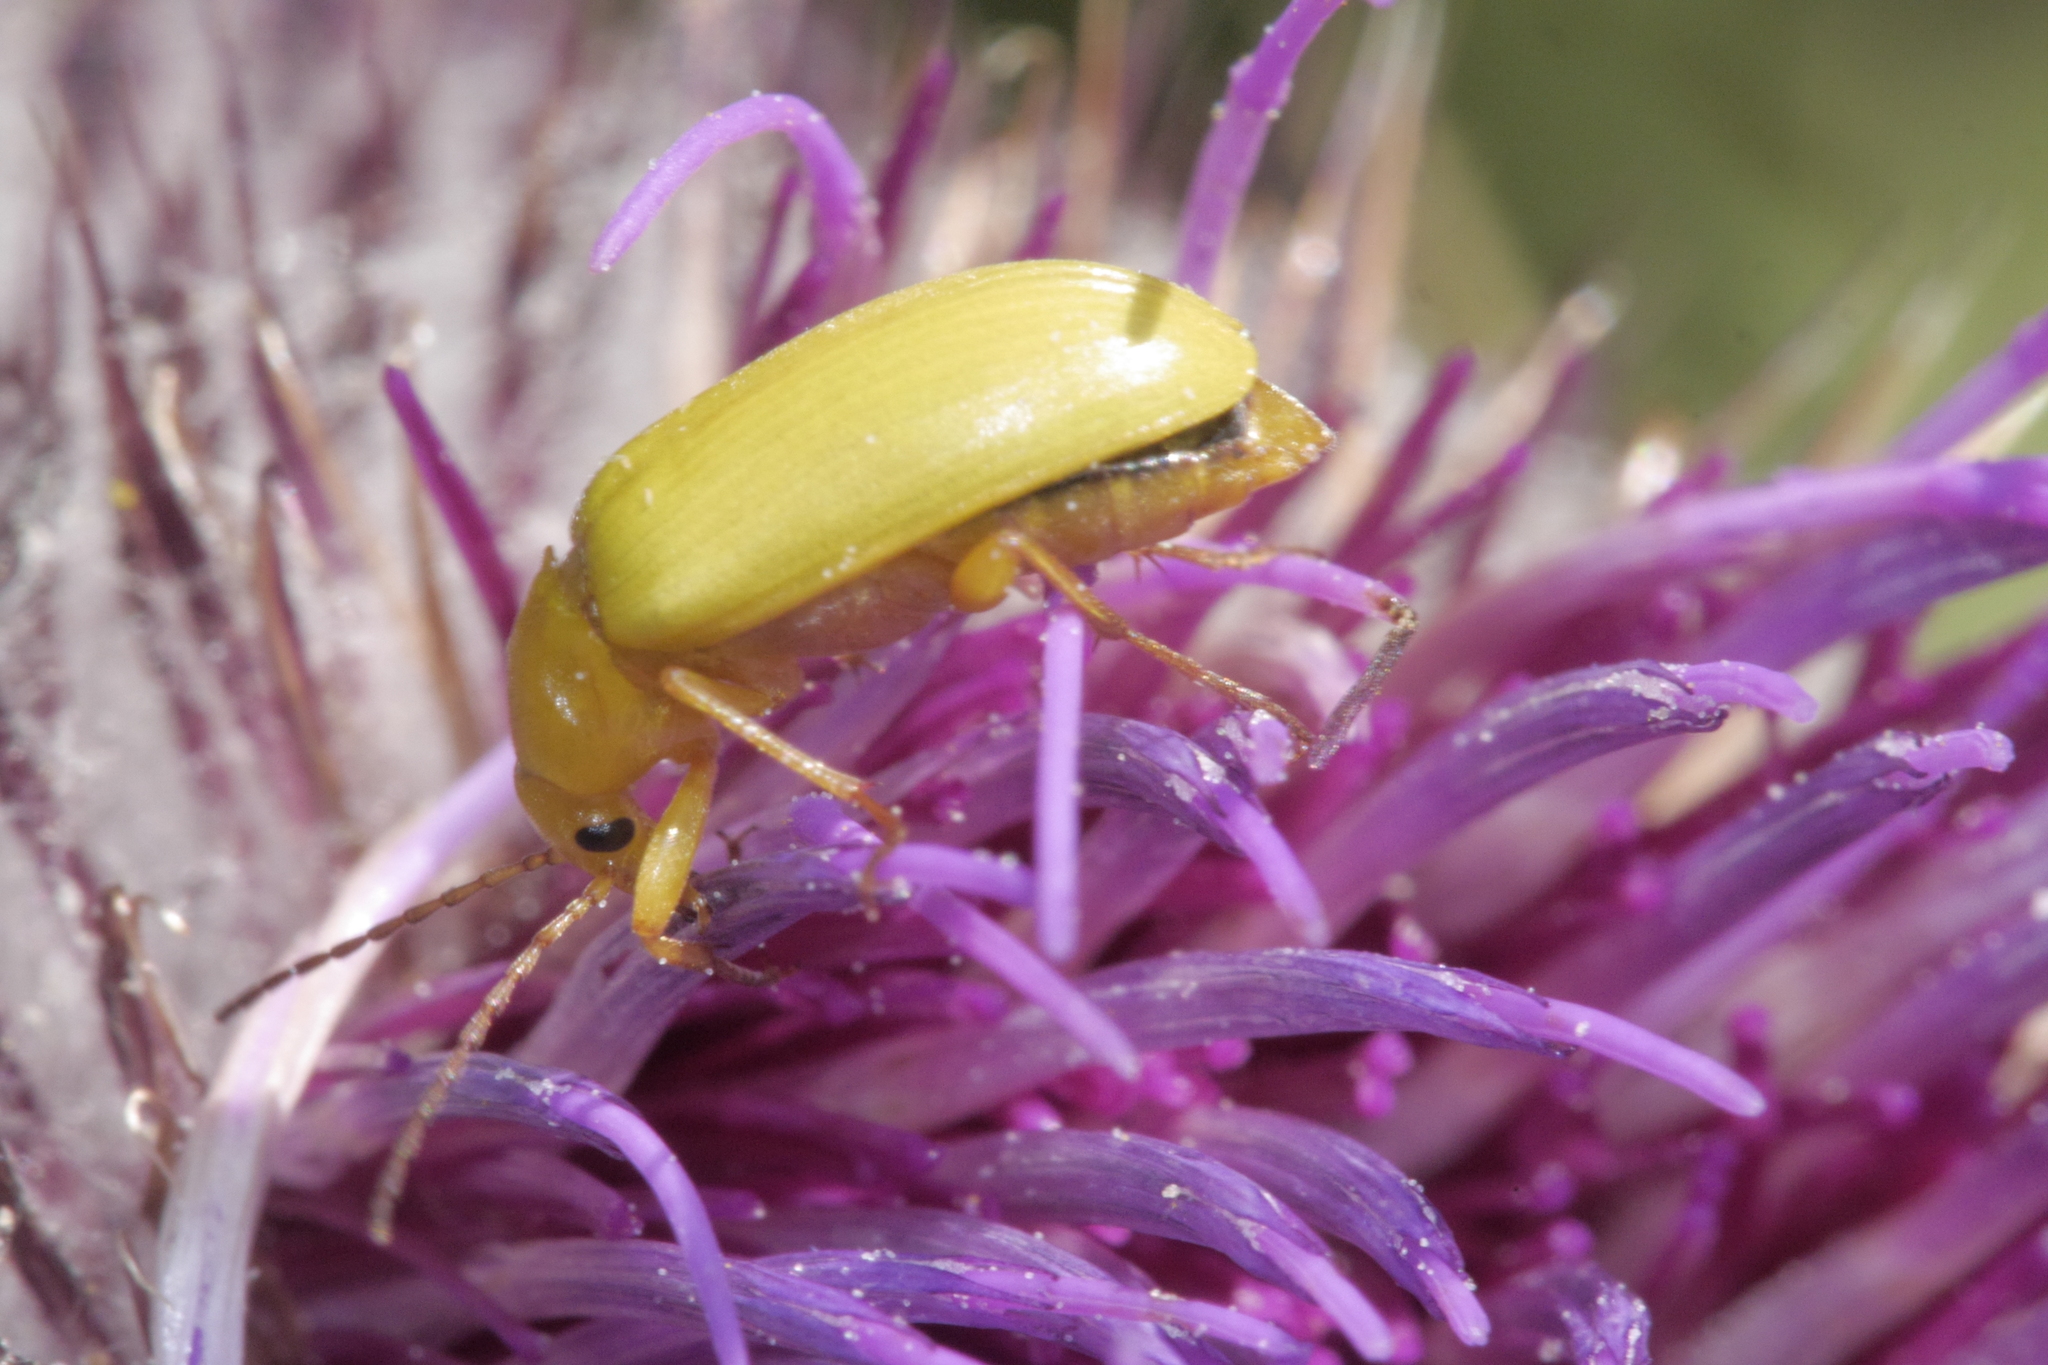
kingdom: Animalia
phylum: Arthropoda
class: Insecta
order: Coleoptera
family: Tenebrionidae
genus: Cteniopus
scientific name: Cteniopus sulphureus
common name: Sulphur beetle
